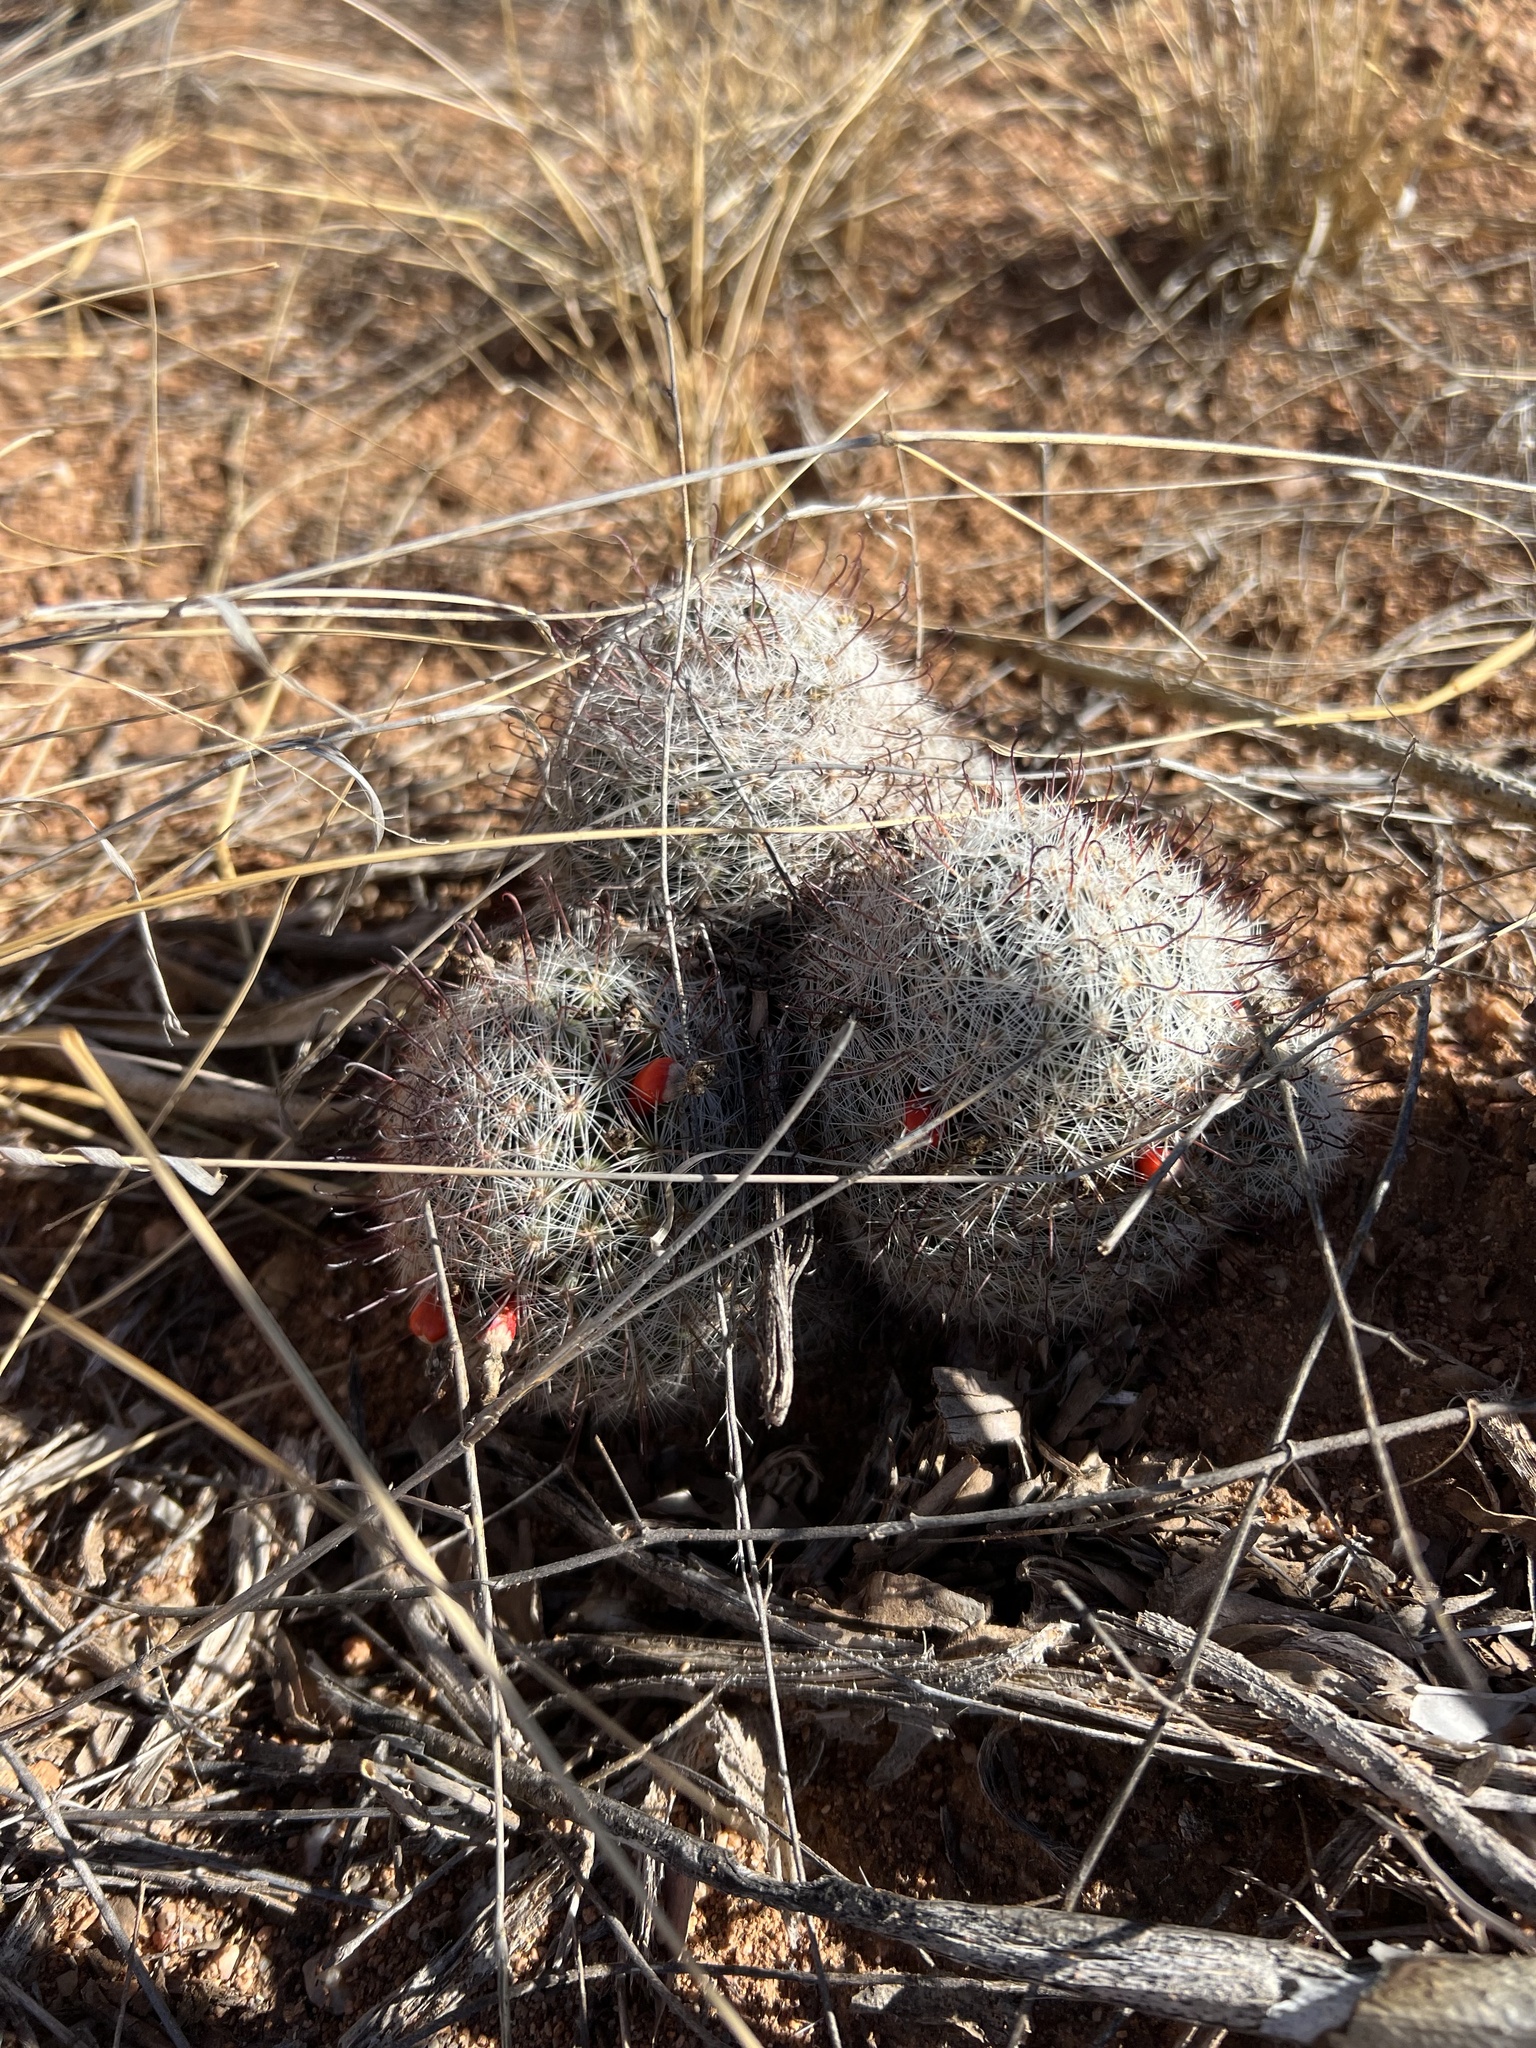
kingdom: Plantae
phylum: Tracheophyta
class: Magnoliopsida
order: Caryophyllales
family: Cactaceae
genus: Cochemiea
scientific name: Cochemiea grahamii
